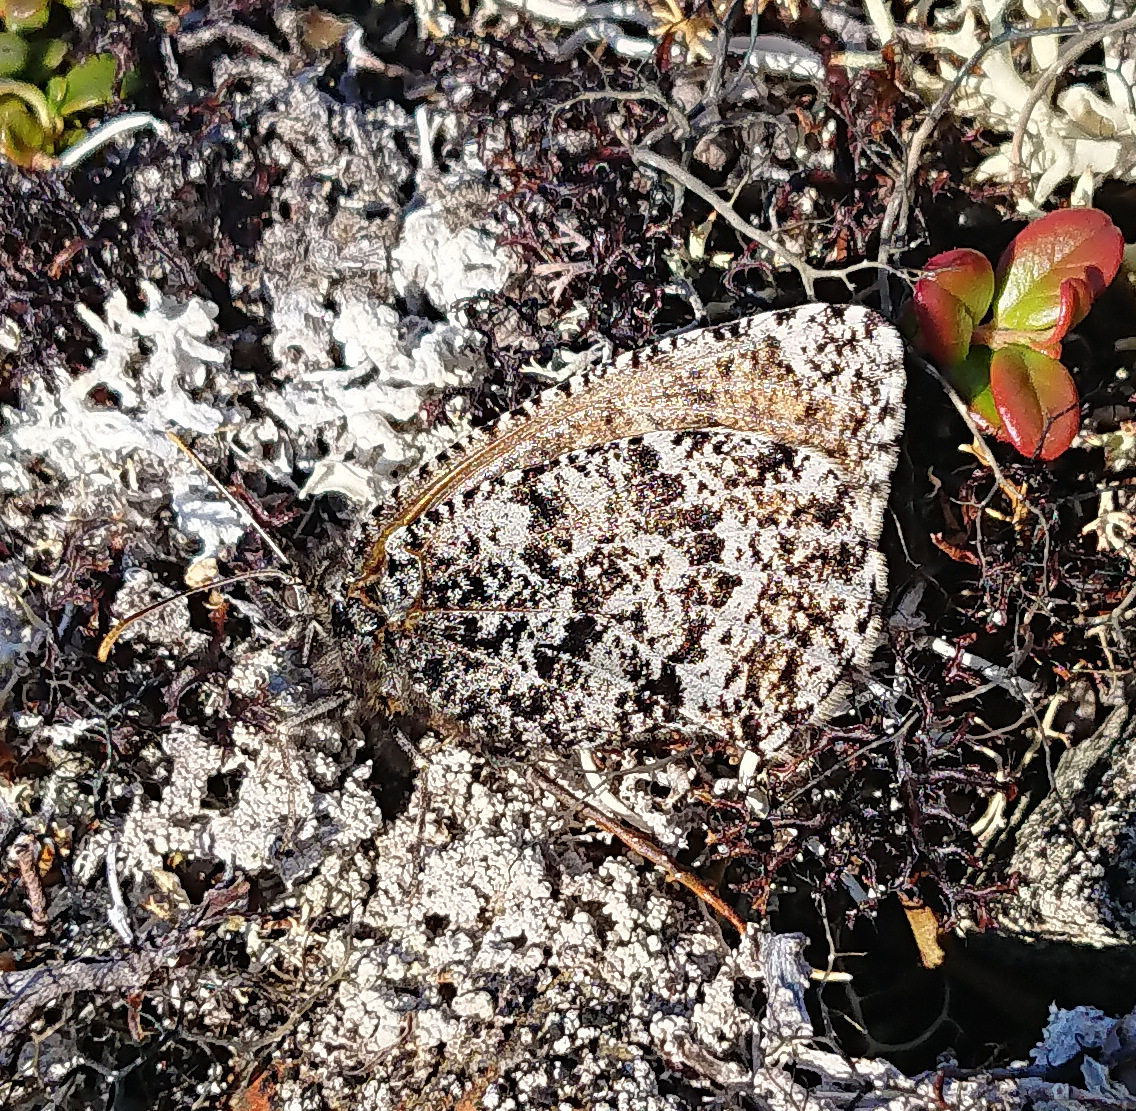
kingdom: Animalia
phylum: Arthropoda
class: Insecta
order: Lepidoptera
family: Nymphalidae
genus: Oeneis
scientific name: Oeneis melissa
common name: Melissa arctic
